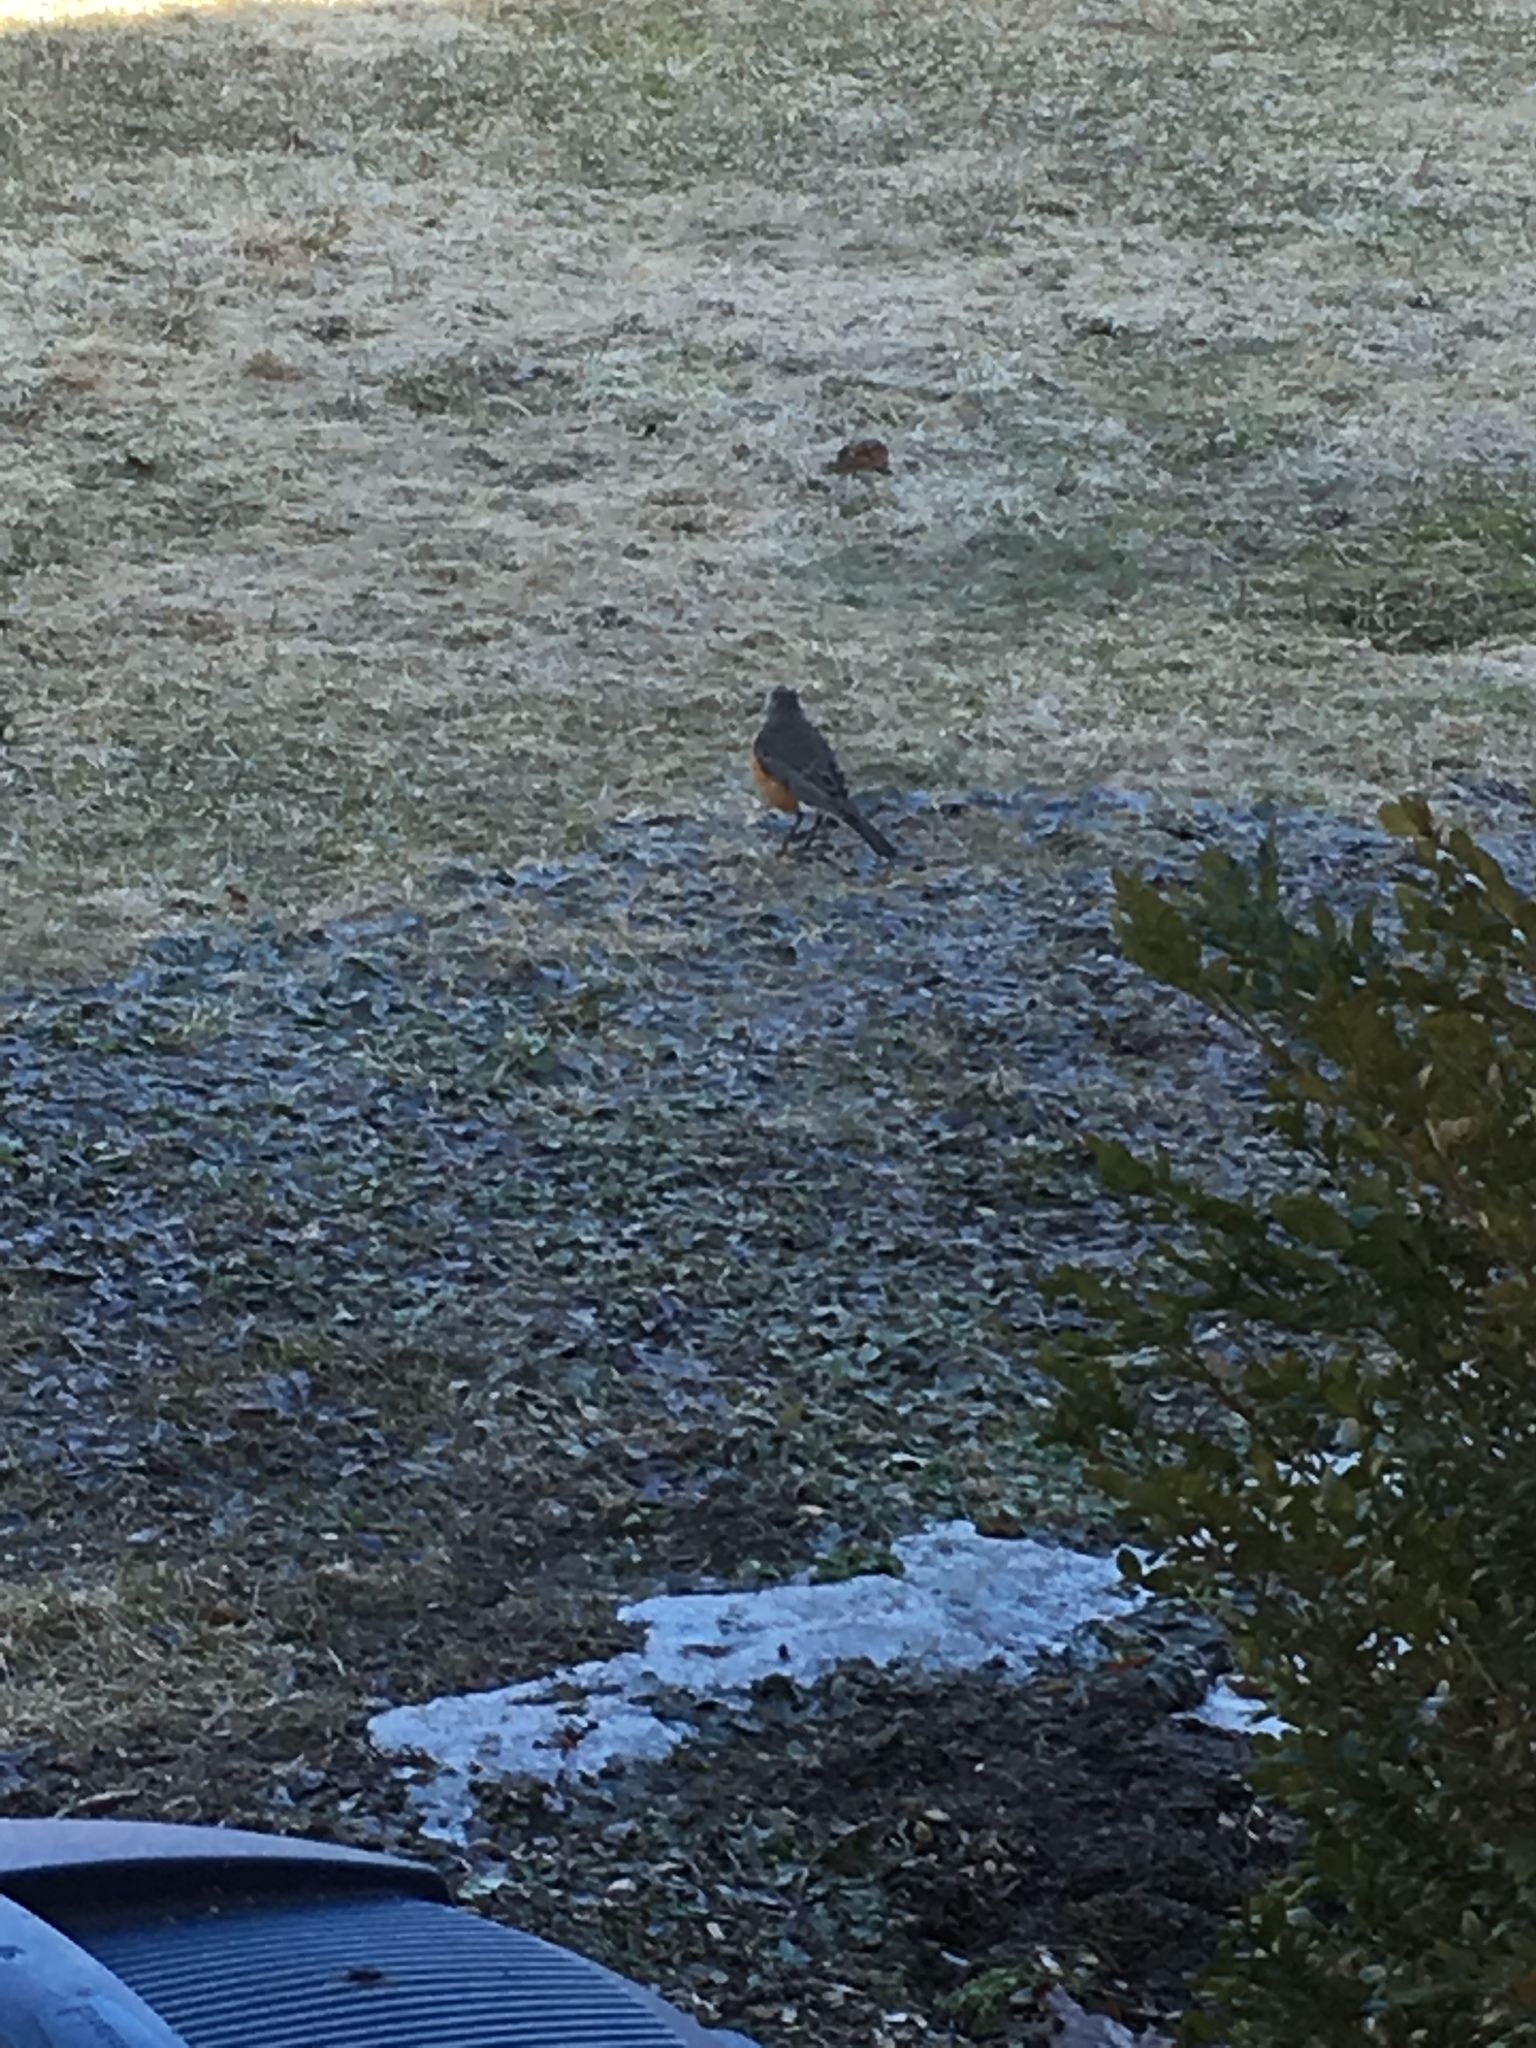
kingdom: Animalia
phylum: Chordata
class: Aves
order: Passeriformes
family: Turdidae
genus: Turdus
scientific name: Turdus migratorius
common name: American robin
